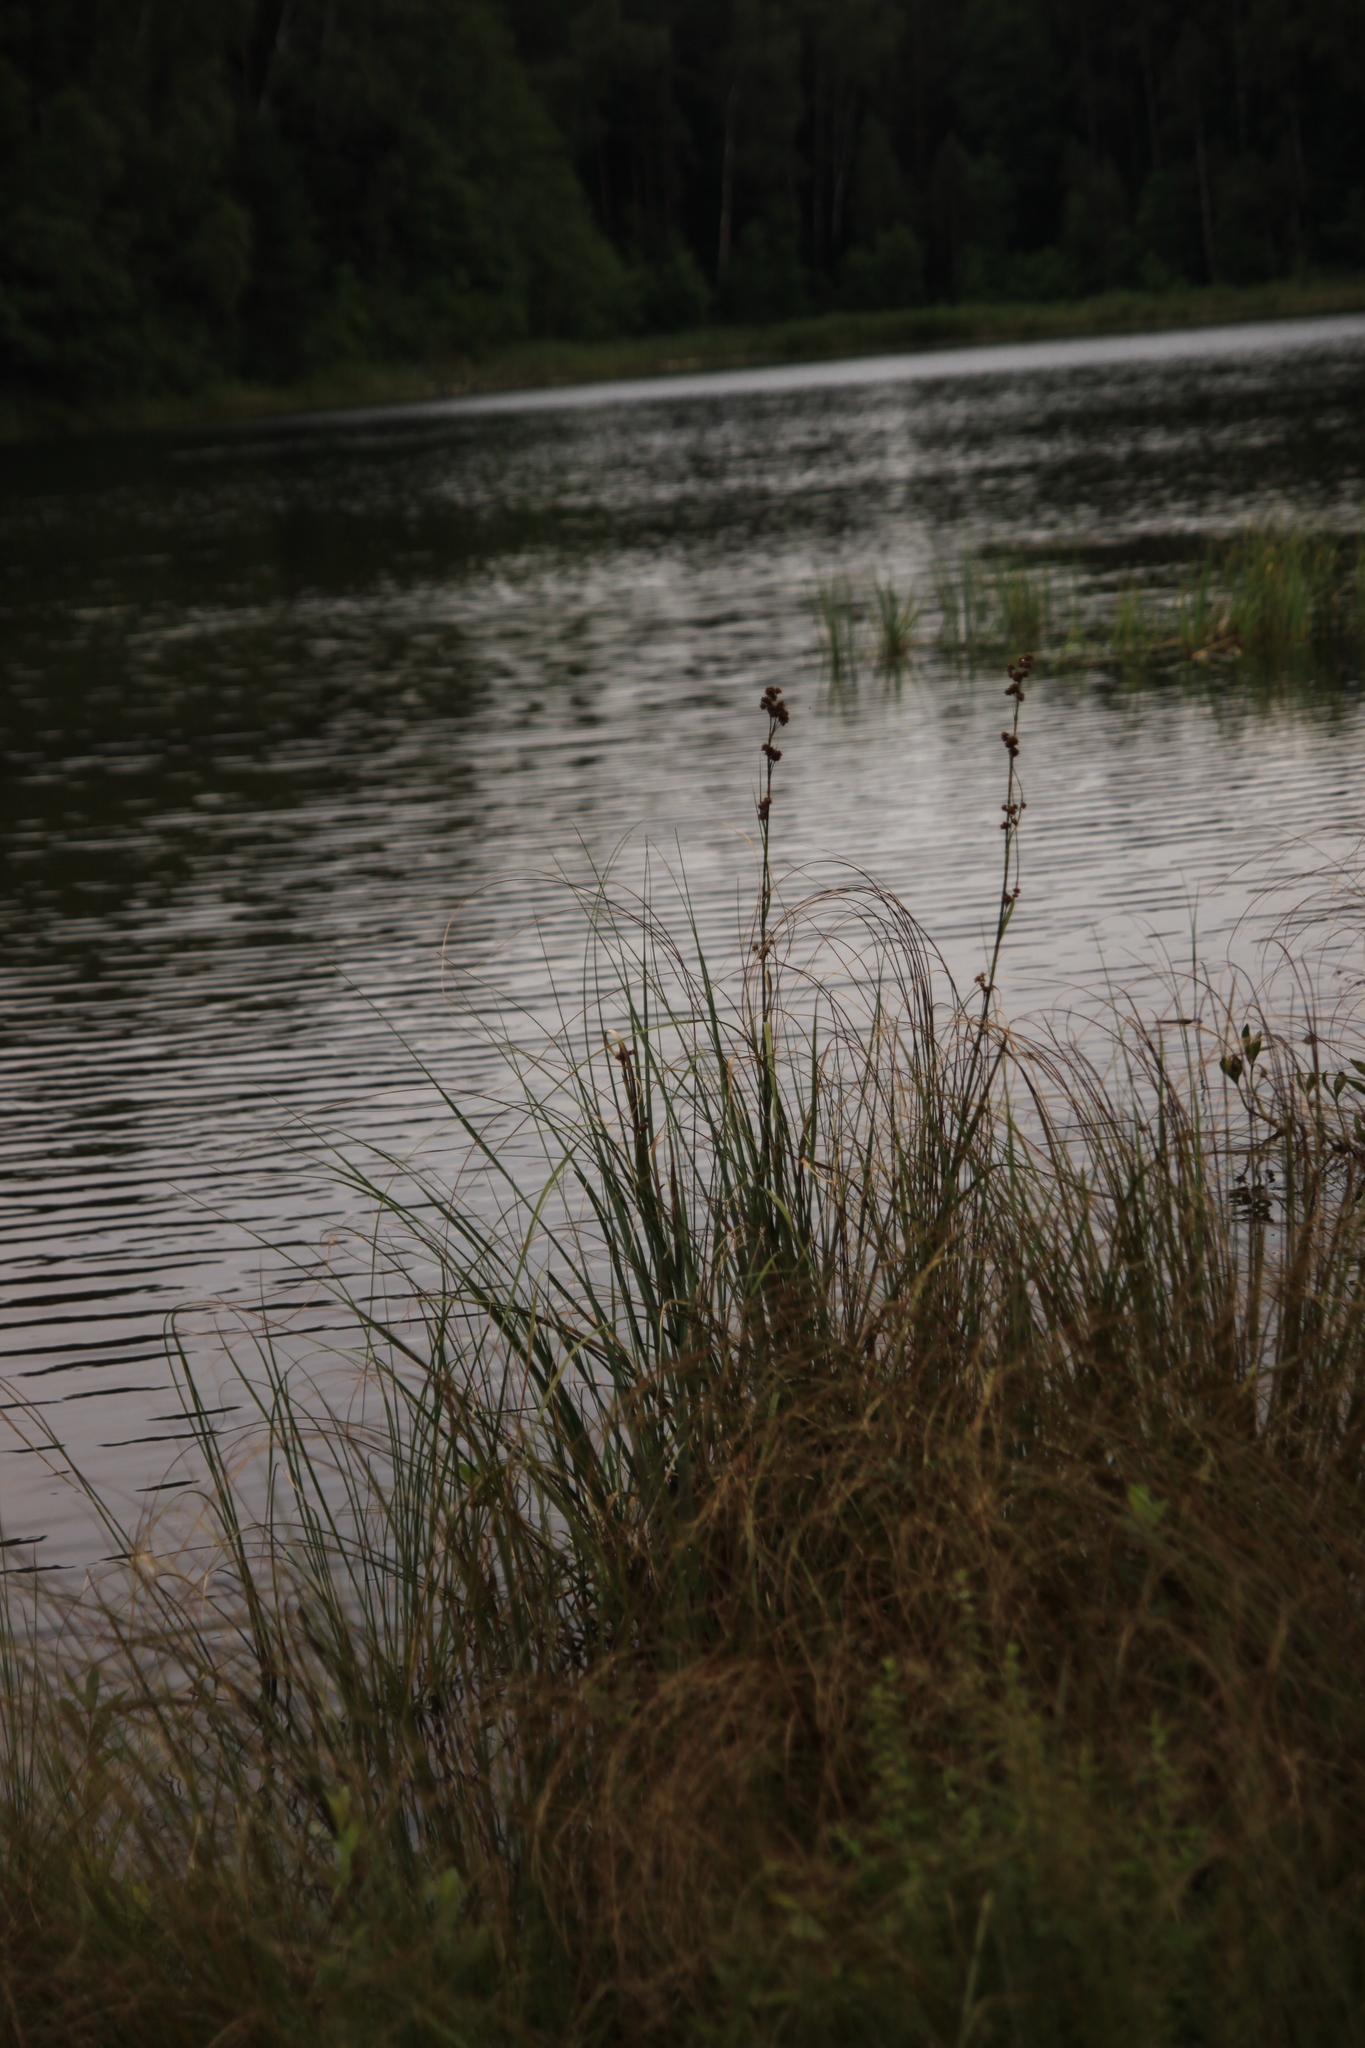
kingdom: Plantae
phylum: Tracheophyta
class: Liliopsida
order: Poales
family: Cyperaceae
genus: Cladium
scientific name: Cladium mariscus
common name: Great fen-sedge
